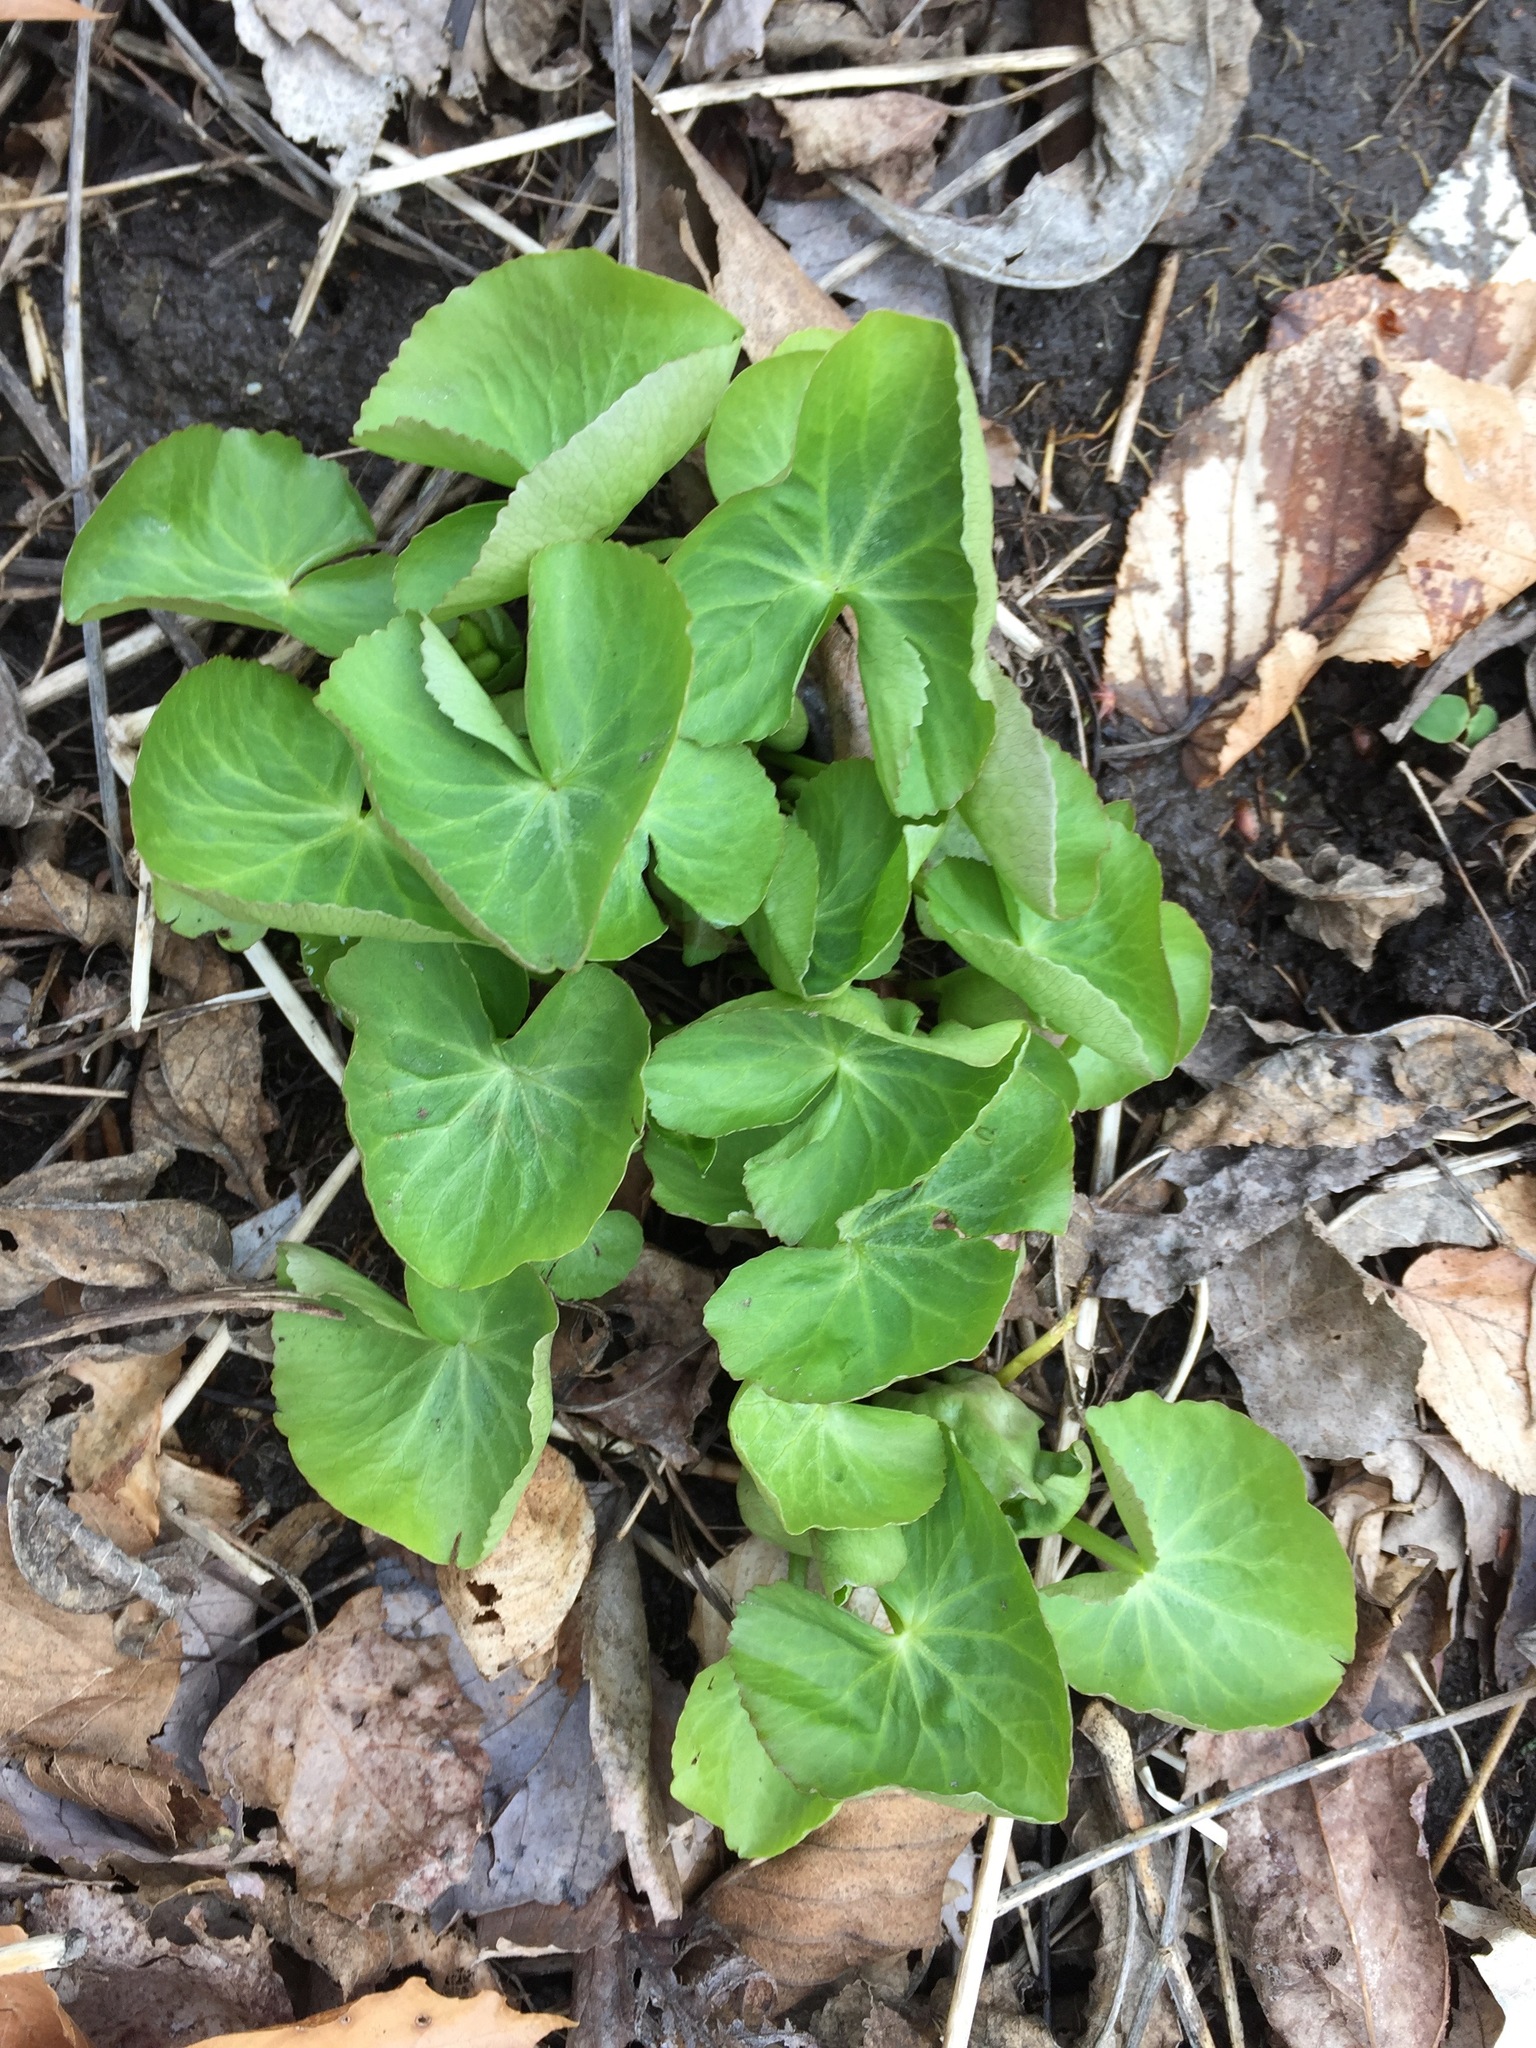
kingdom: Plantae
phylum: Tracheophyta
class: Magnoliopsida
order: Ranunculales
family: Ranunculaceae
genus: Caltha
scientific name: Caltha palustris
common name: Marsh marigold
